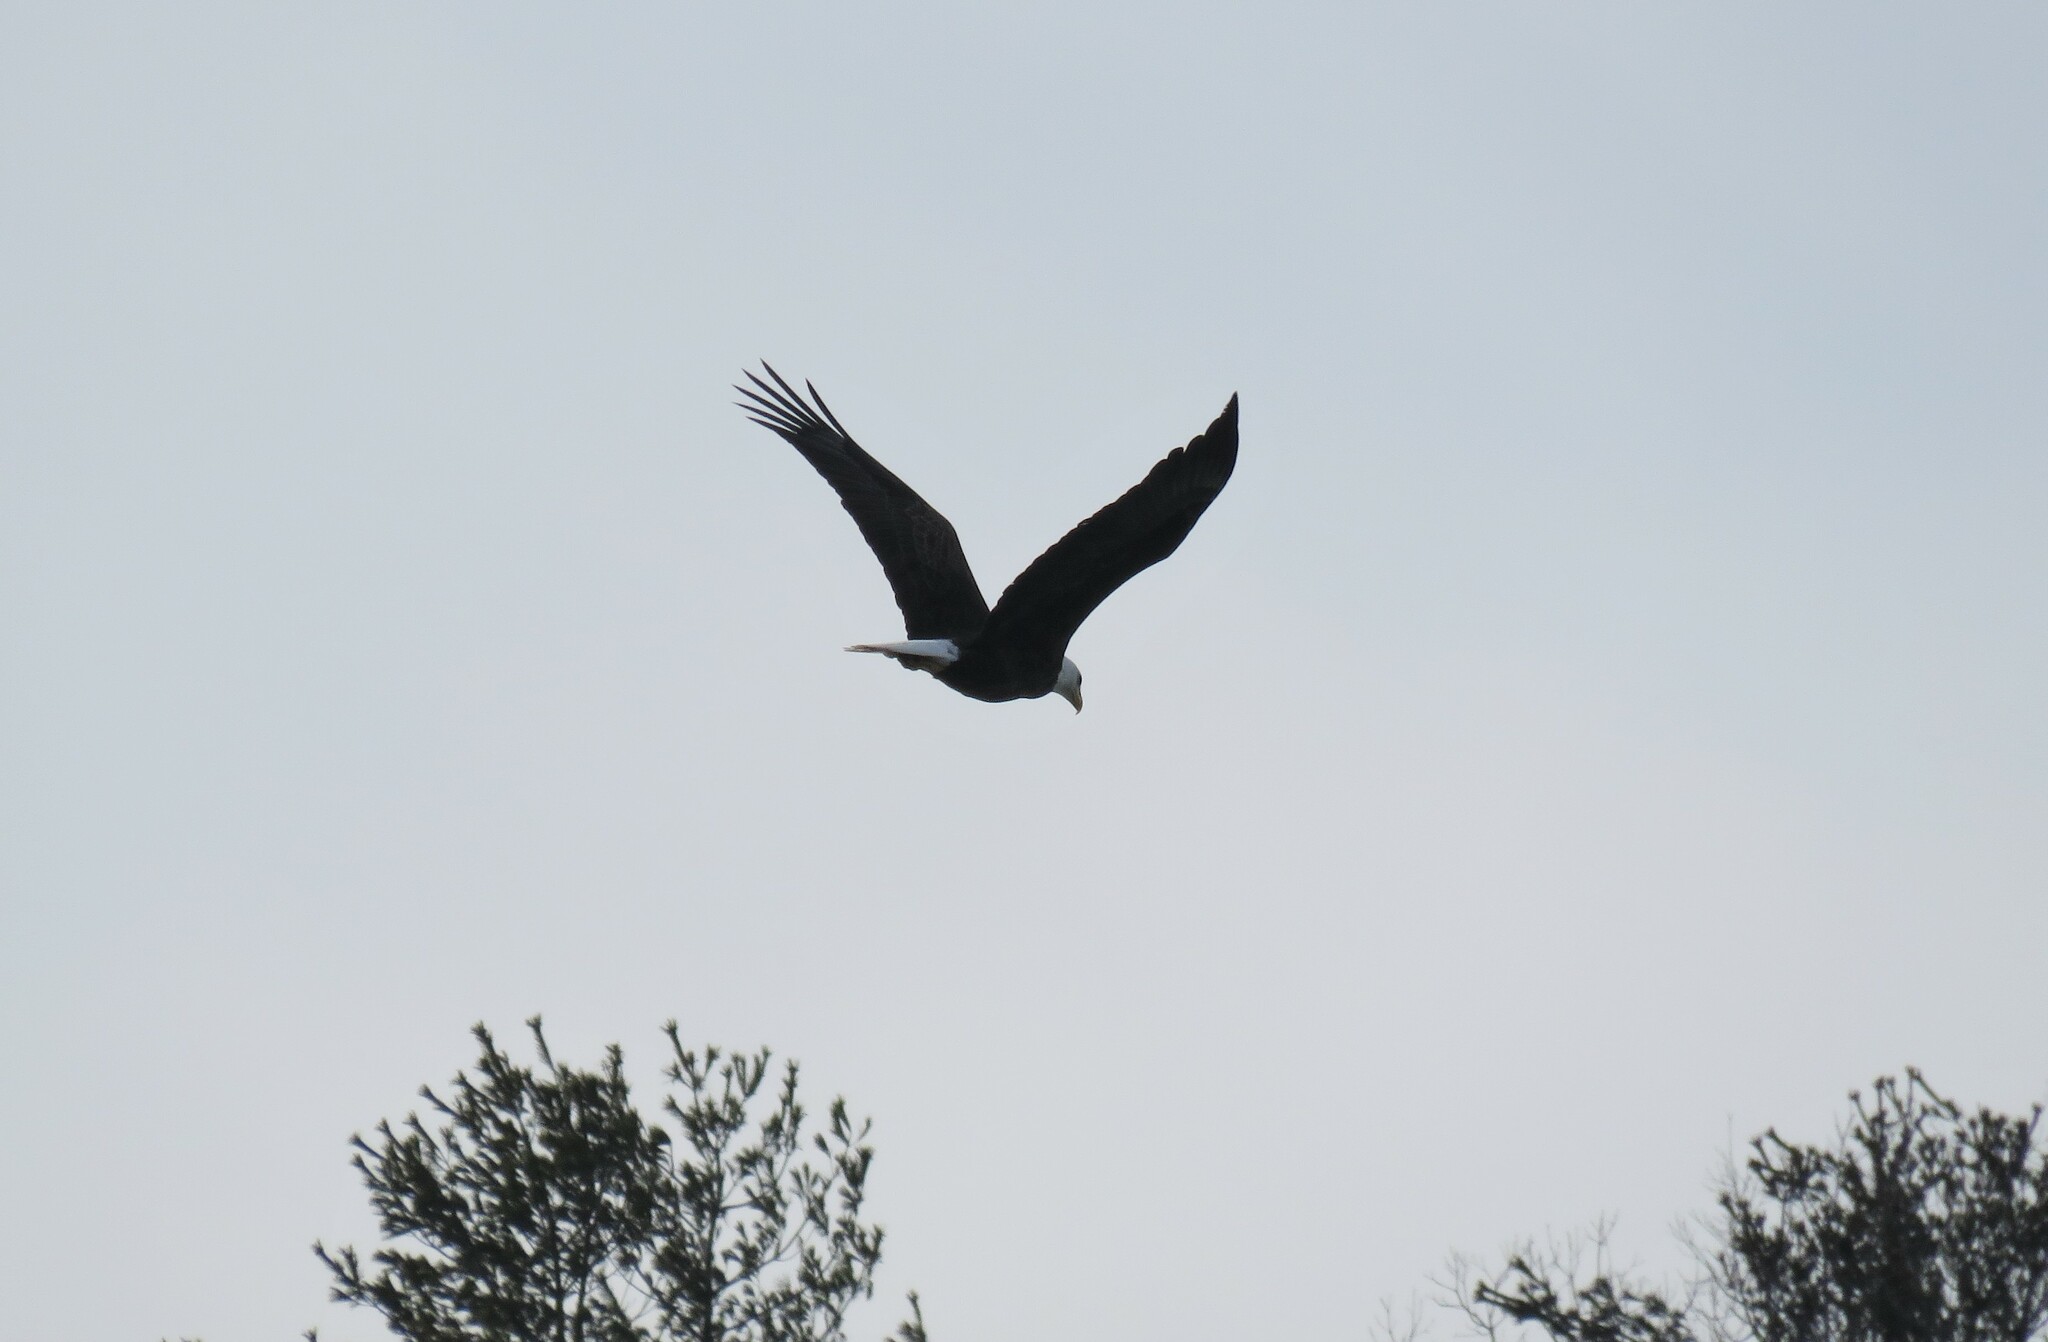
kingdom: Animalia
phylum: Chordata
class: Aves
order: Accipitriformes
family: Accipitridae
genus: Haliaeetus
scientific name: Haliaeetus leucocephalus
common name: Bald eagle
